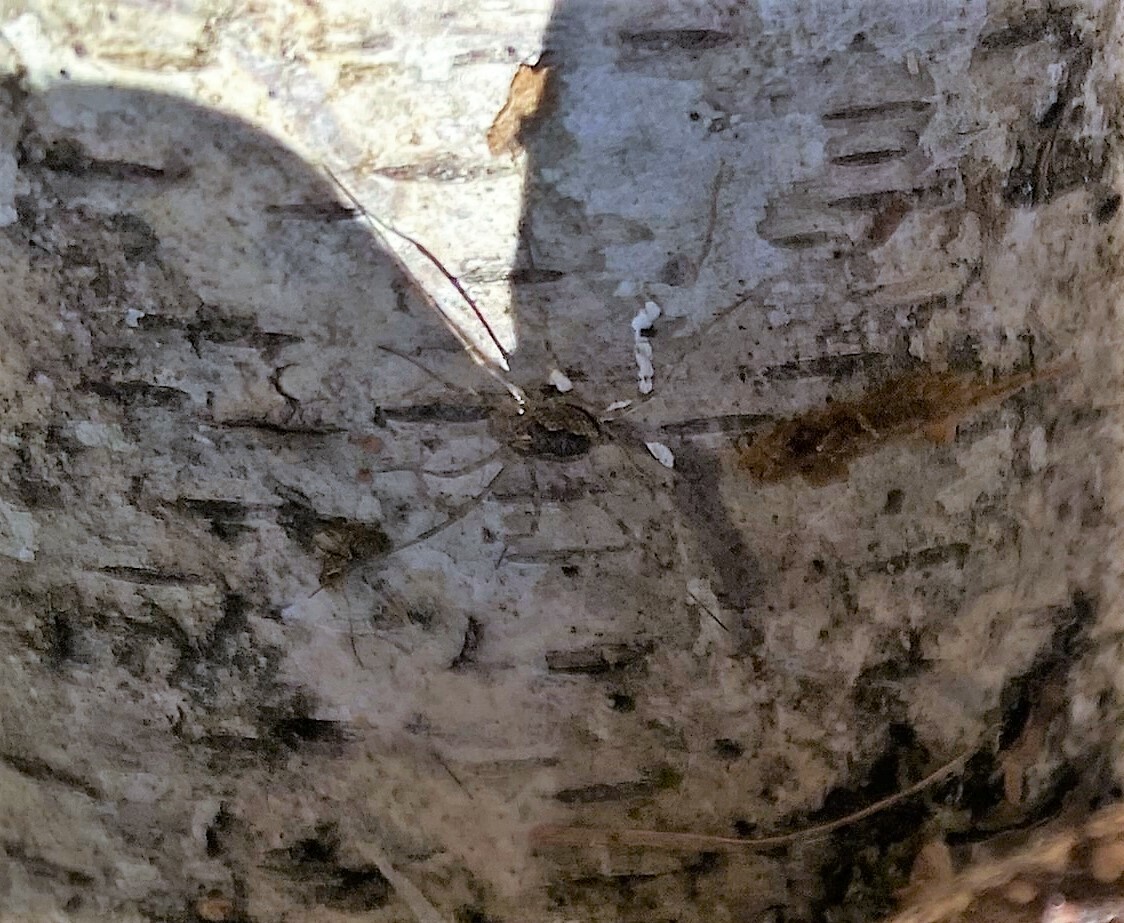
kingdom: Animalia
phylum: Arthropoda
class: Arachnida
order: Opiliones
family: Phalangiidae
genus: Rilaena
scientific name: Rilaena triangularis
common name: Spring harvestman
